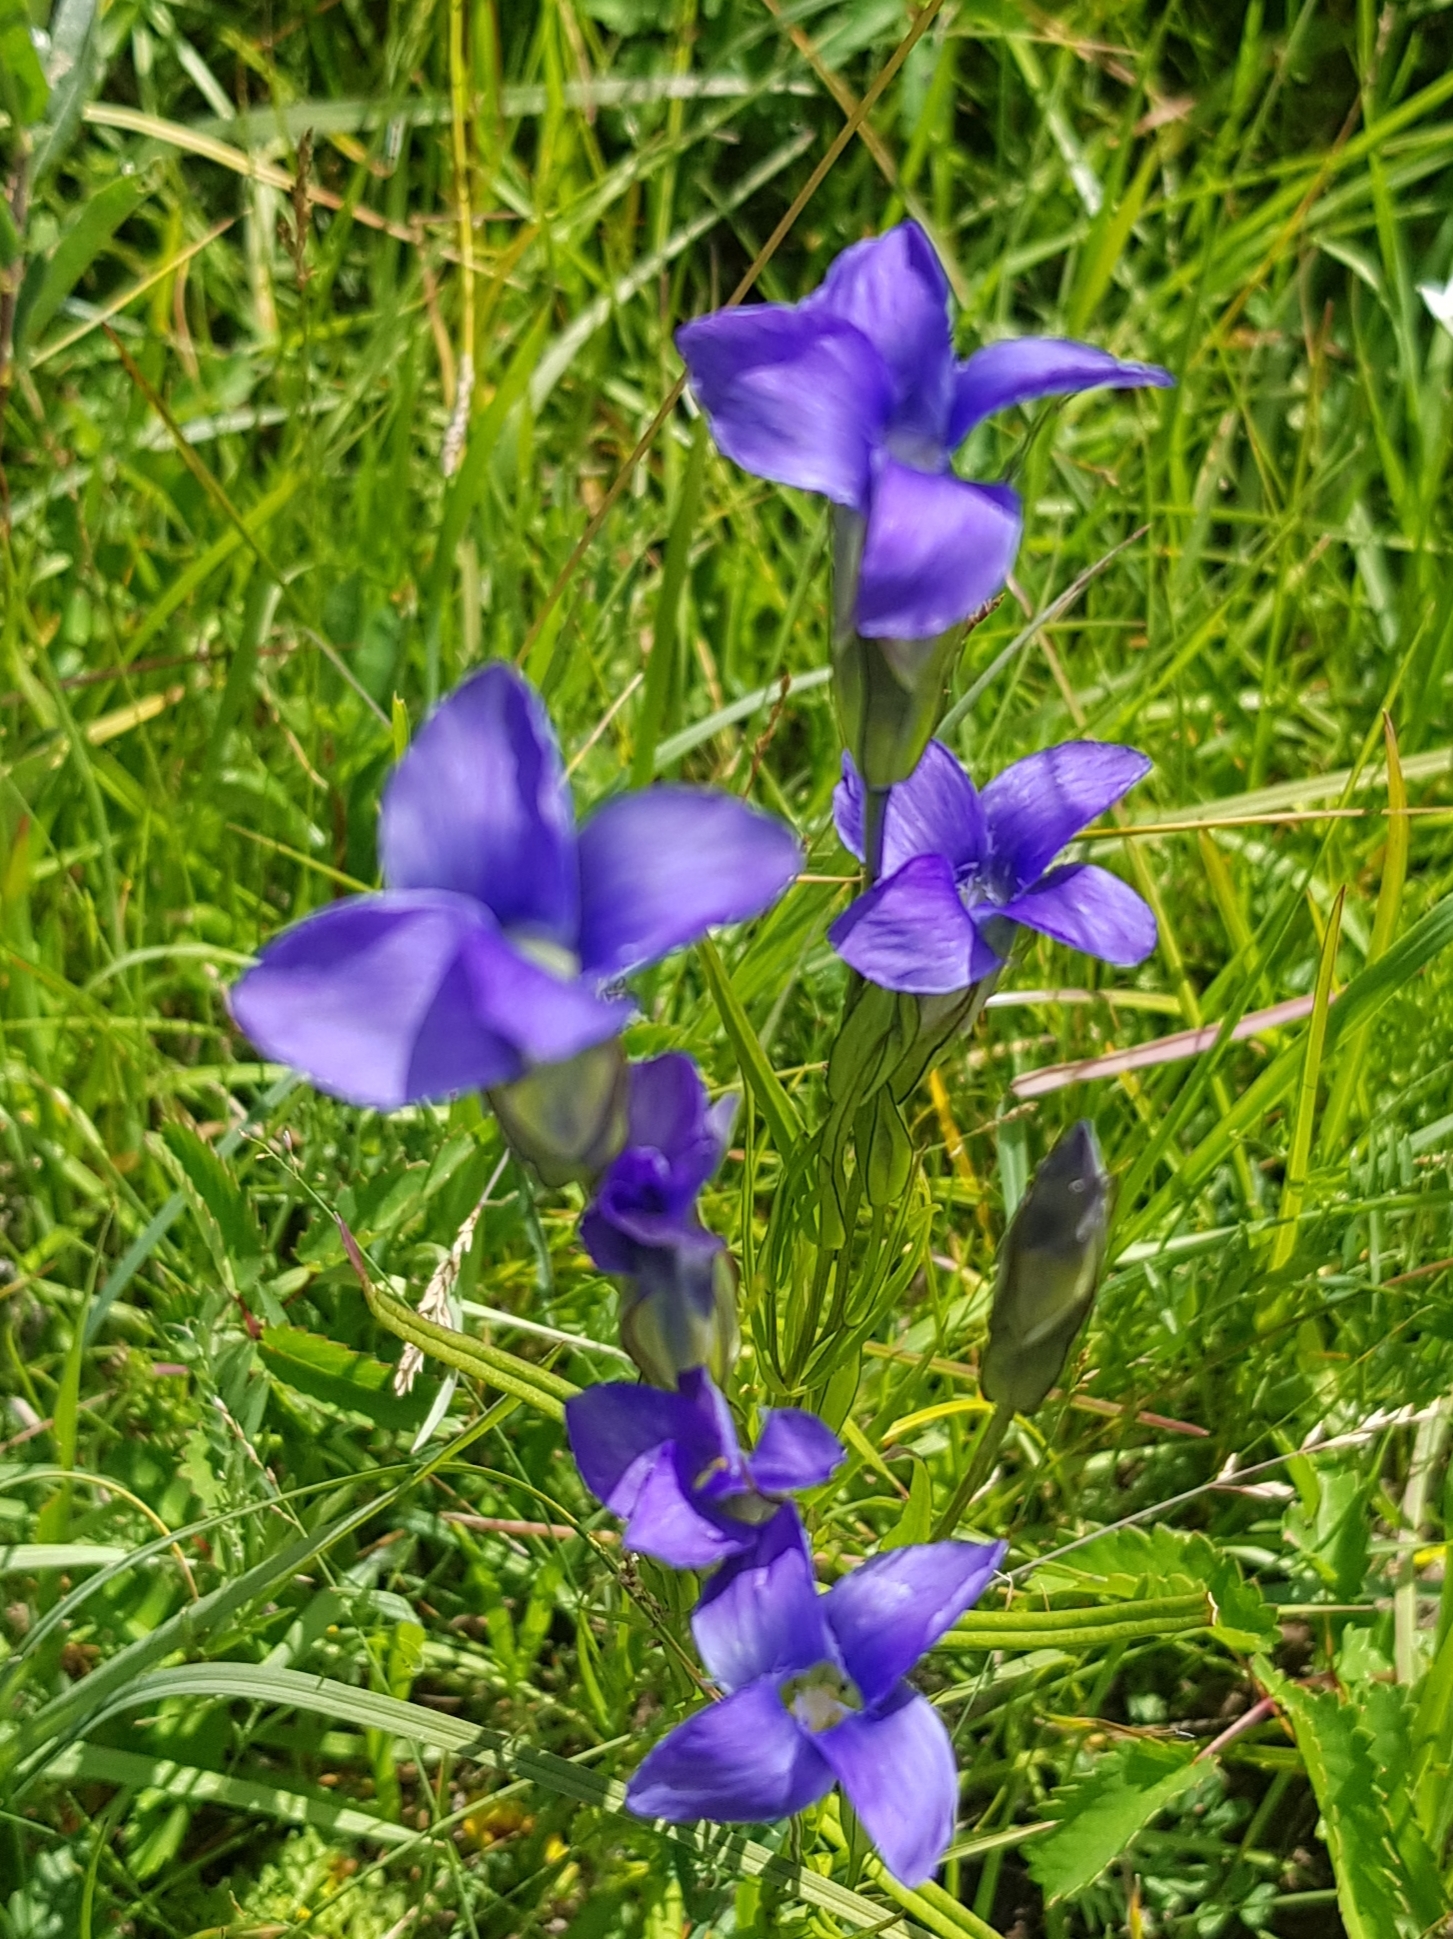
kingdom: Plantae
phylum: Tracheophyta
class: Magnoliopsida
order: Gentianales
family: Gentianaceae
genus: Gentianopsis
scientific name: Gentianopsis barbata
